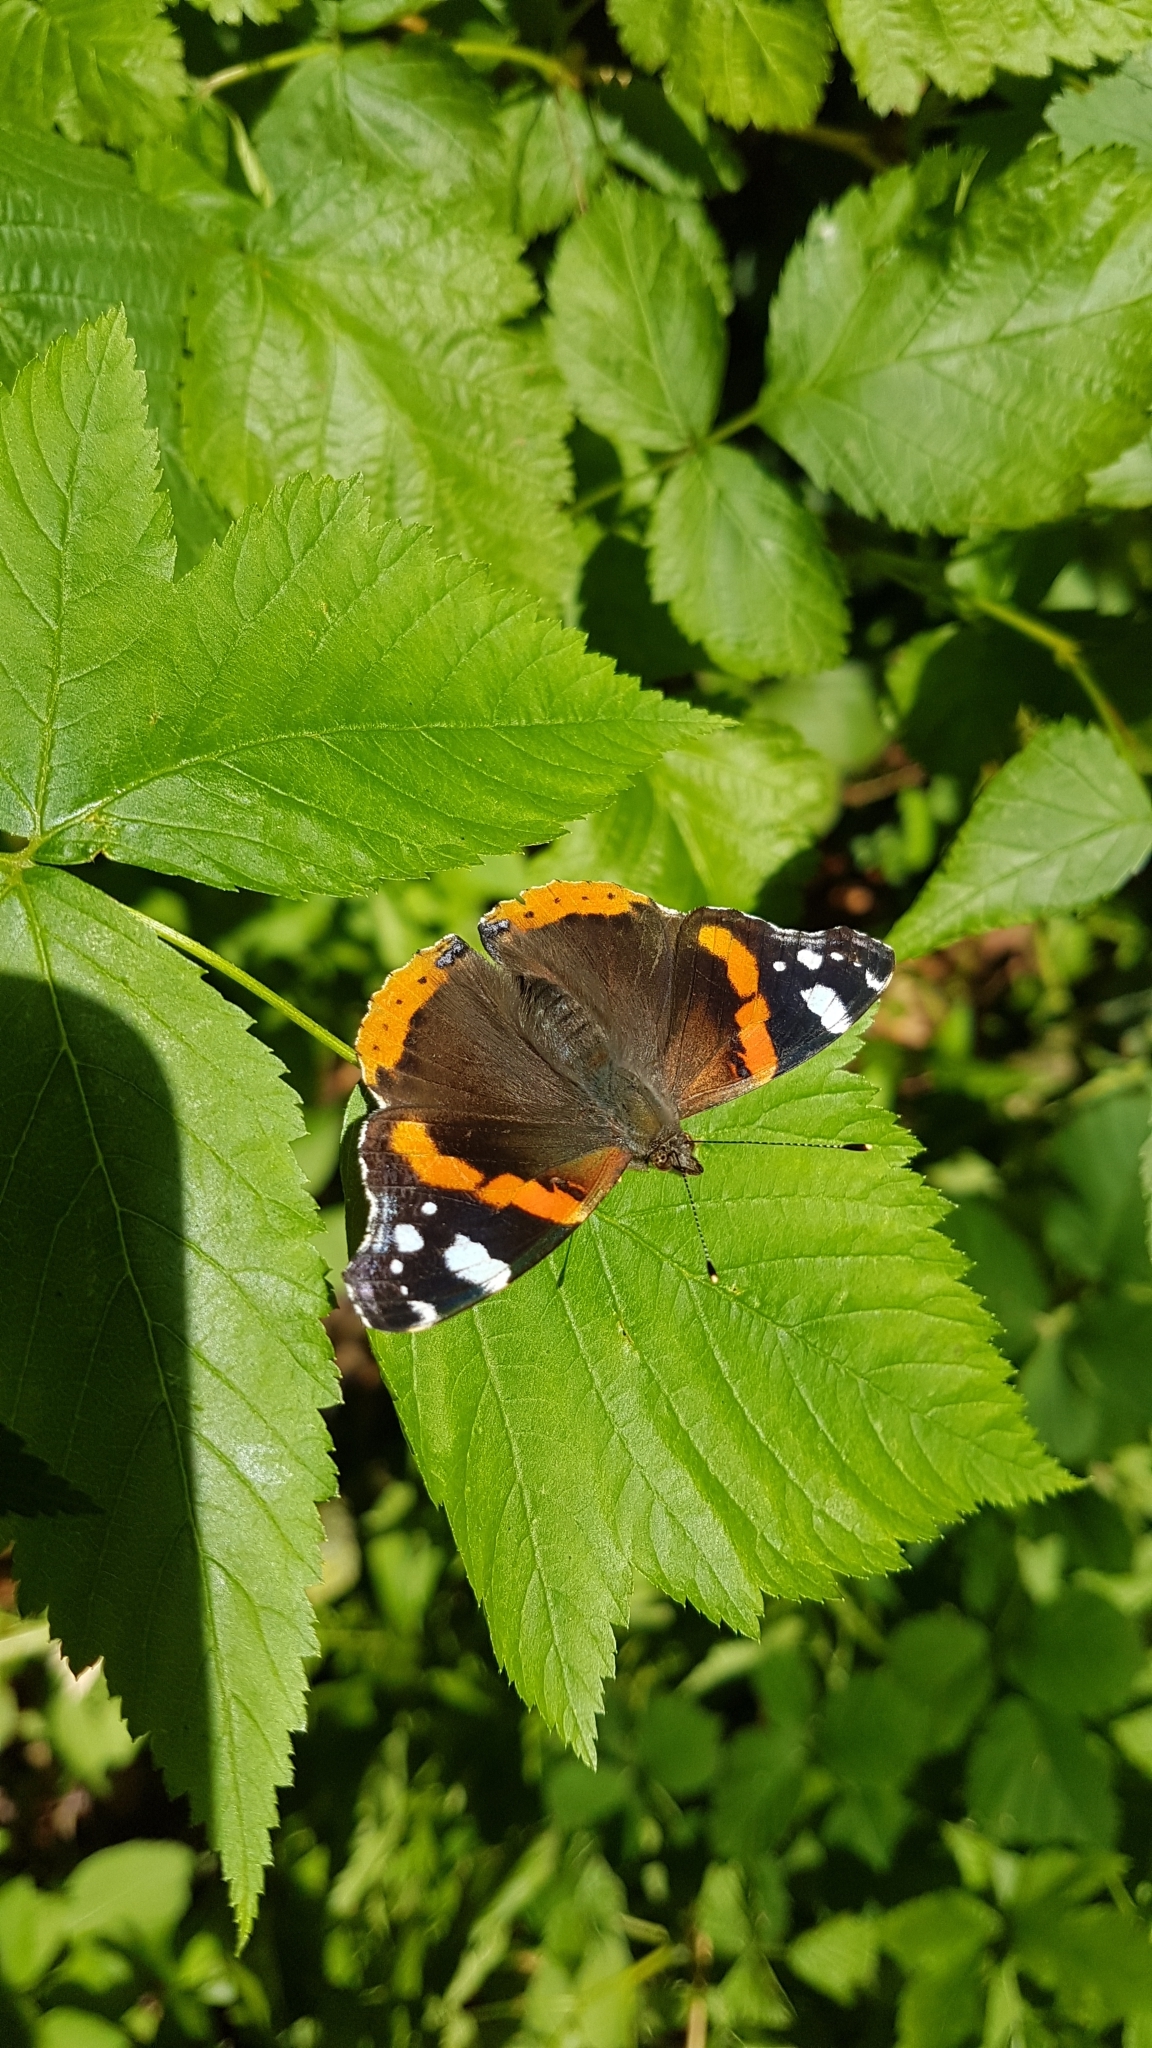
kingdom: Animalia
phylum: Arthropoda
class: Insecta
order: Lepidoptera
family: Nymphalidae
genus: Vanessa
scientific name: Vanessa atalanta
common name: Red admiral
